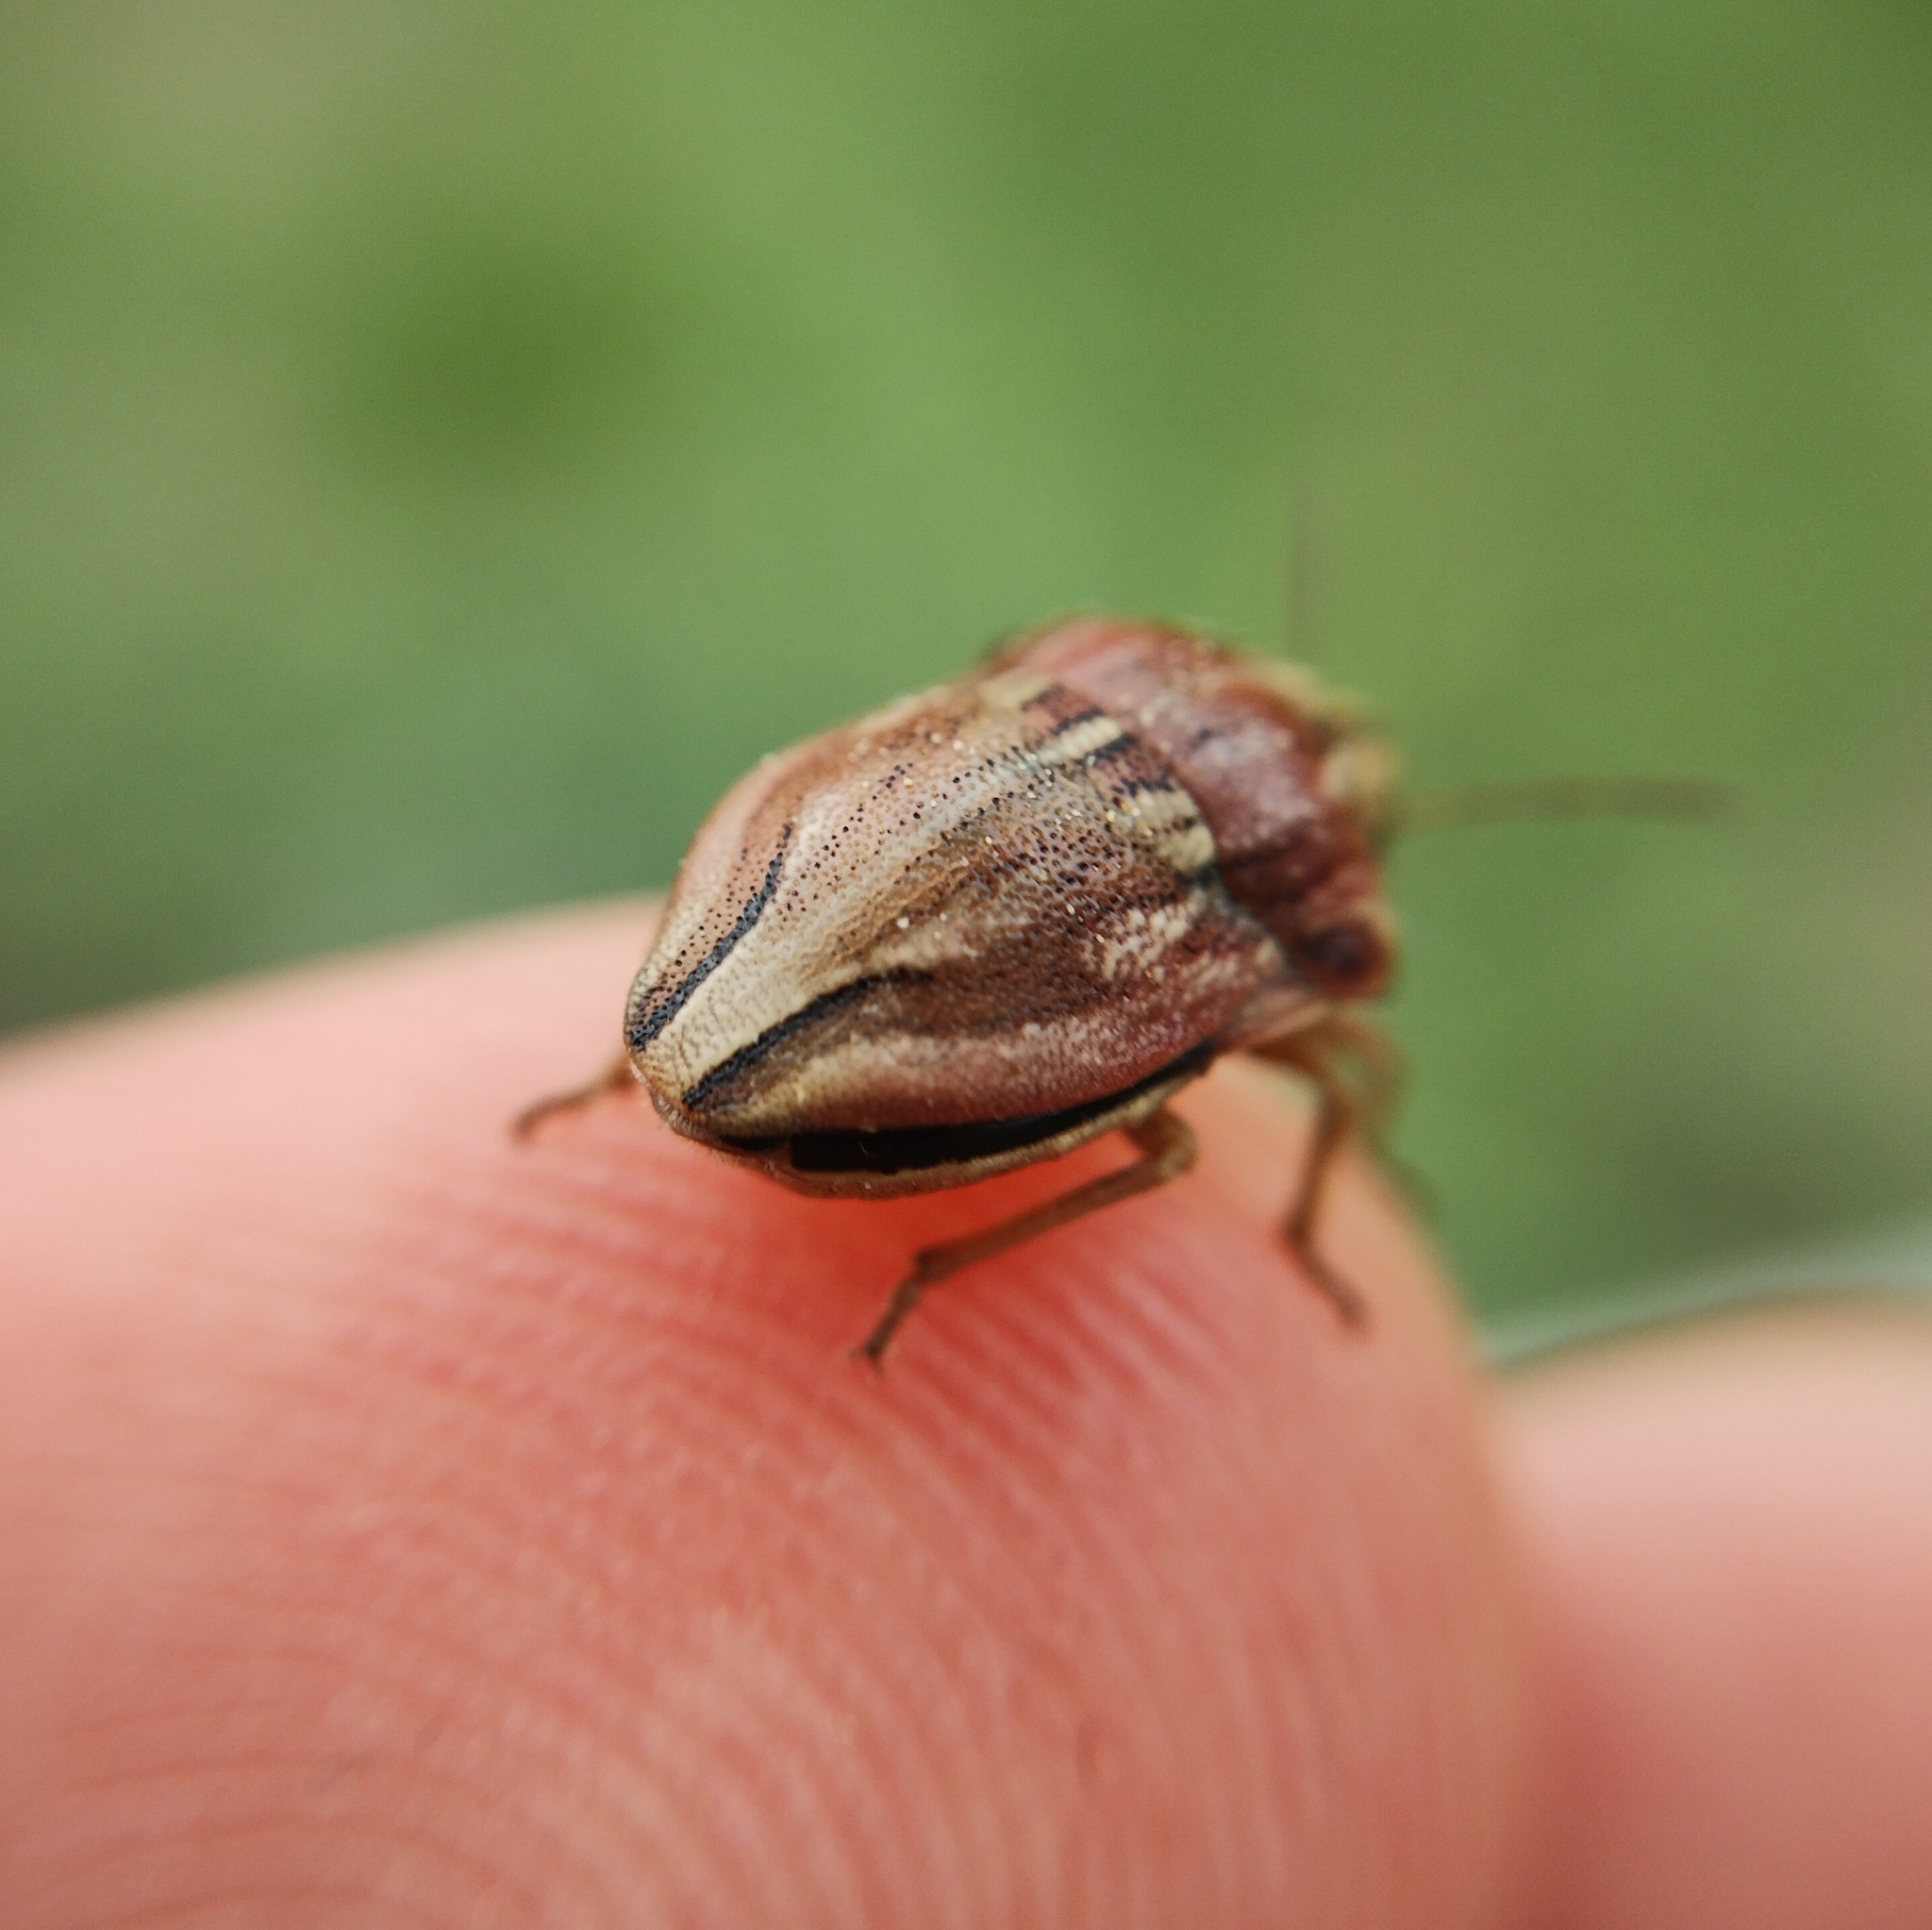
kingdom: Animalia
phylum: Arthropoda
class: Insecta
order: Hemiptera
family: Scutelleridae
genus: Odontotarsus
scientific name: Odontotarsus purpureolineatus
